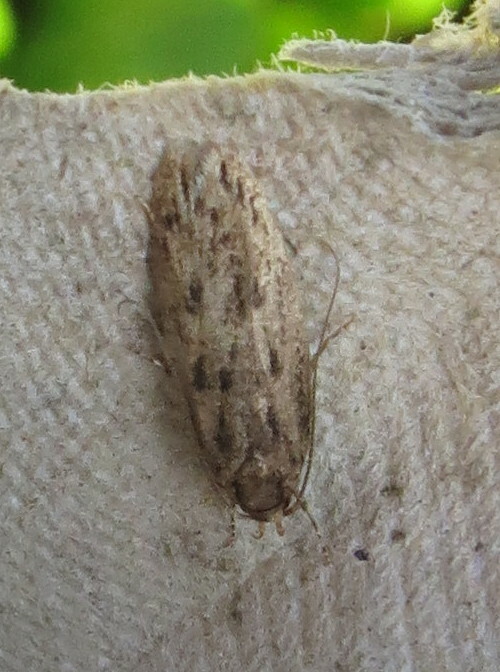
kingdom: Animalia
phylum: Arthropoda
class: Insecta
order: Lepidoptera
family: Oecophoridae
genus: Hofmannophila
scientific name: Hofmannophila pseudospretella
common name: Brown house moth
